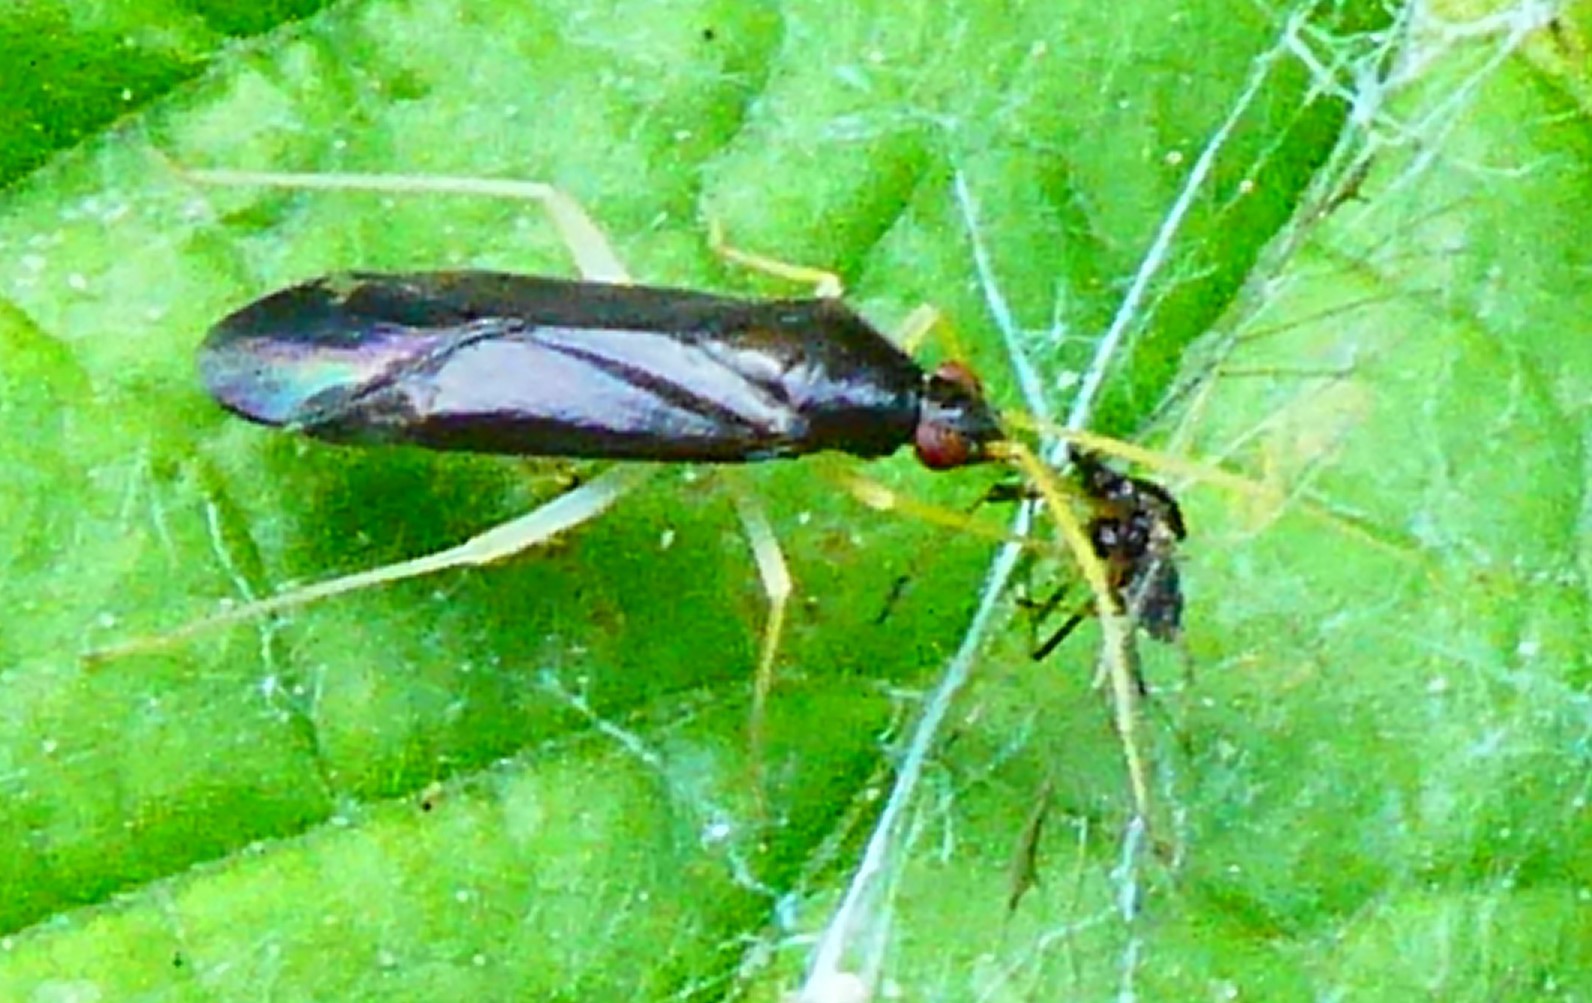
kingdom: Animalia
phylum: Arthropoda
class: Insecta
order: Hemiptera
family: Miridae
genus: Phylus
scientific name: Phylus coryli
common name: Plant bug
